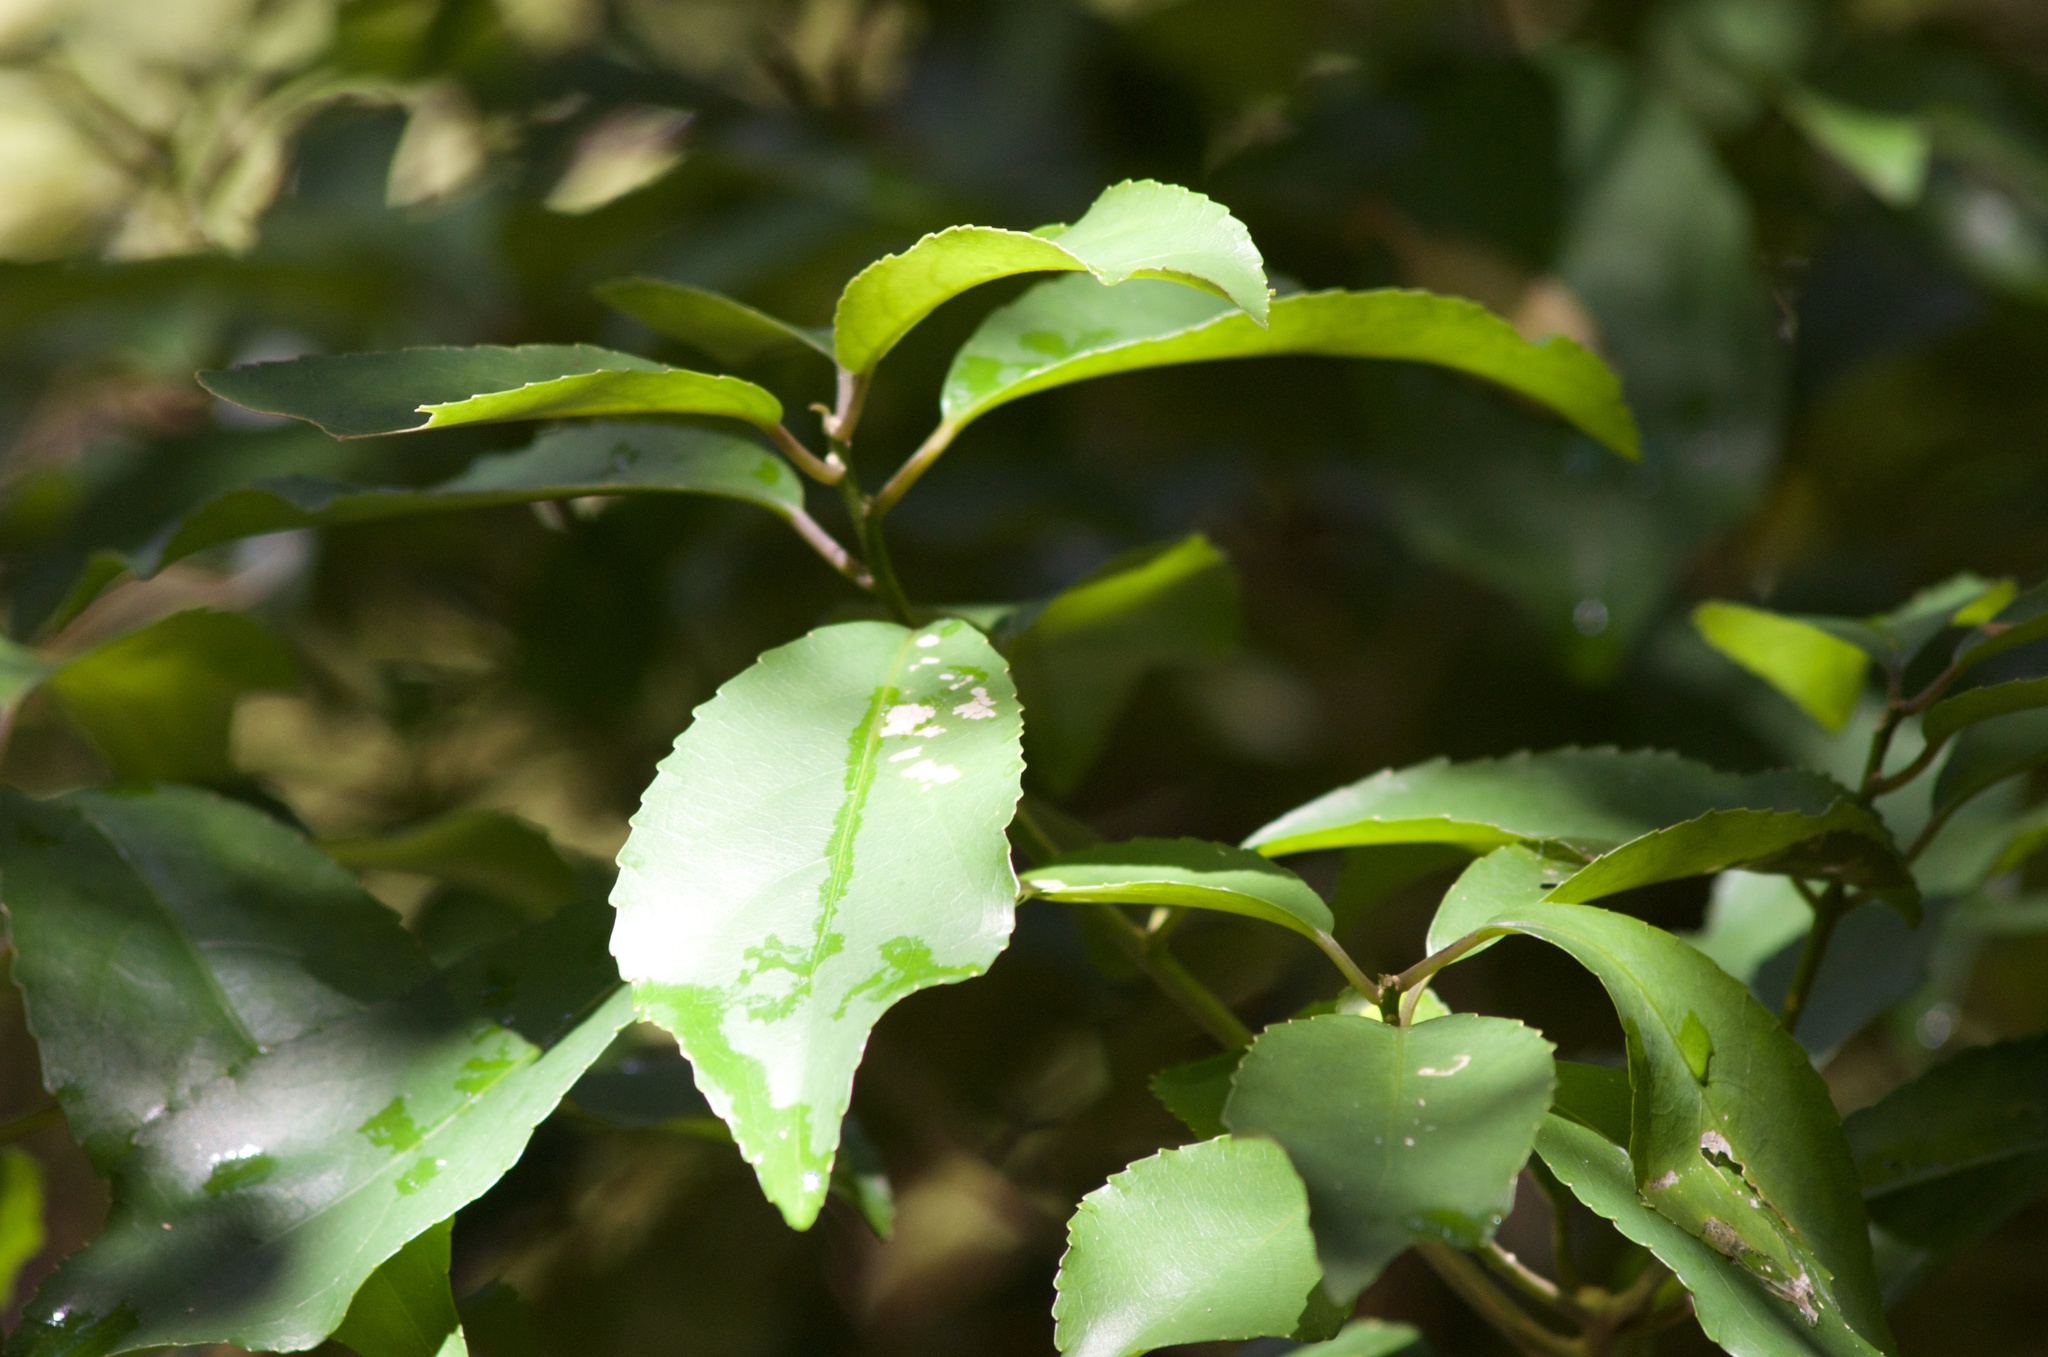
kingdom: Plantae
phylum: Tracheophyta
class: Magnoliopsida
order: Malpighiales
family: Violaceae
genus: Melicytus
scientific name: Melicytus ramiflorus
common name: Mahoe
